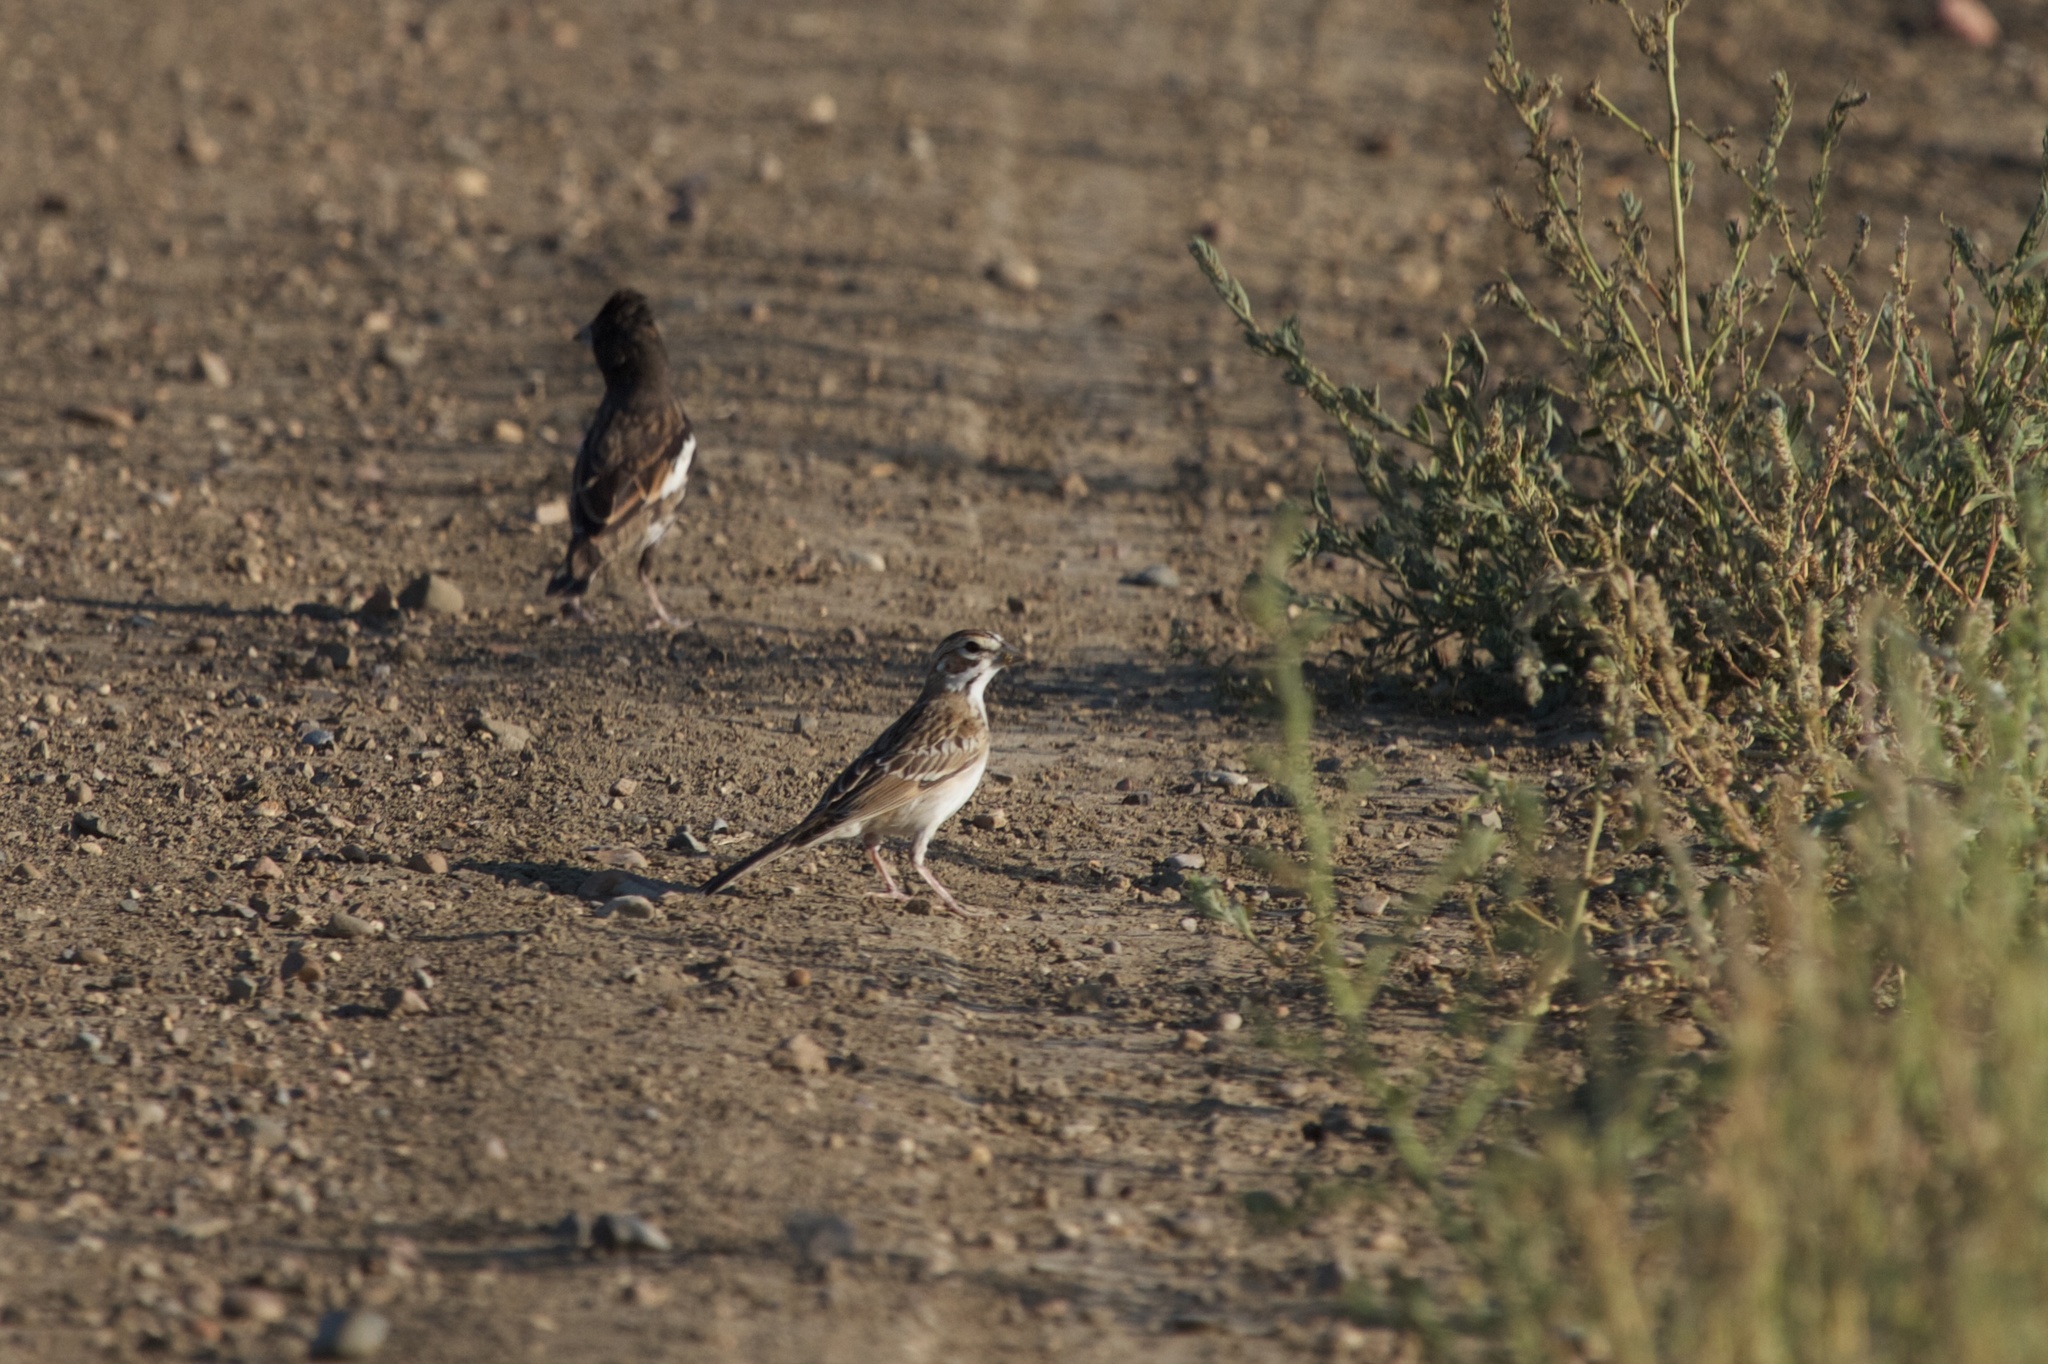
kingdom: Animalia
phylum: Chordata
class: Aves
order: Passeriformes
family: Passerellidae
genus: Calamospiza
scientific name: Calamospiza melanocorys
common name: Lark bunting
